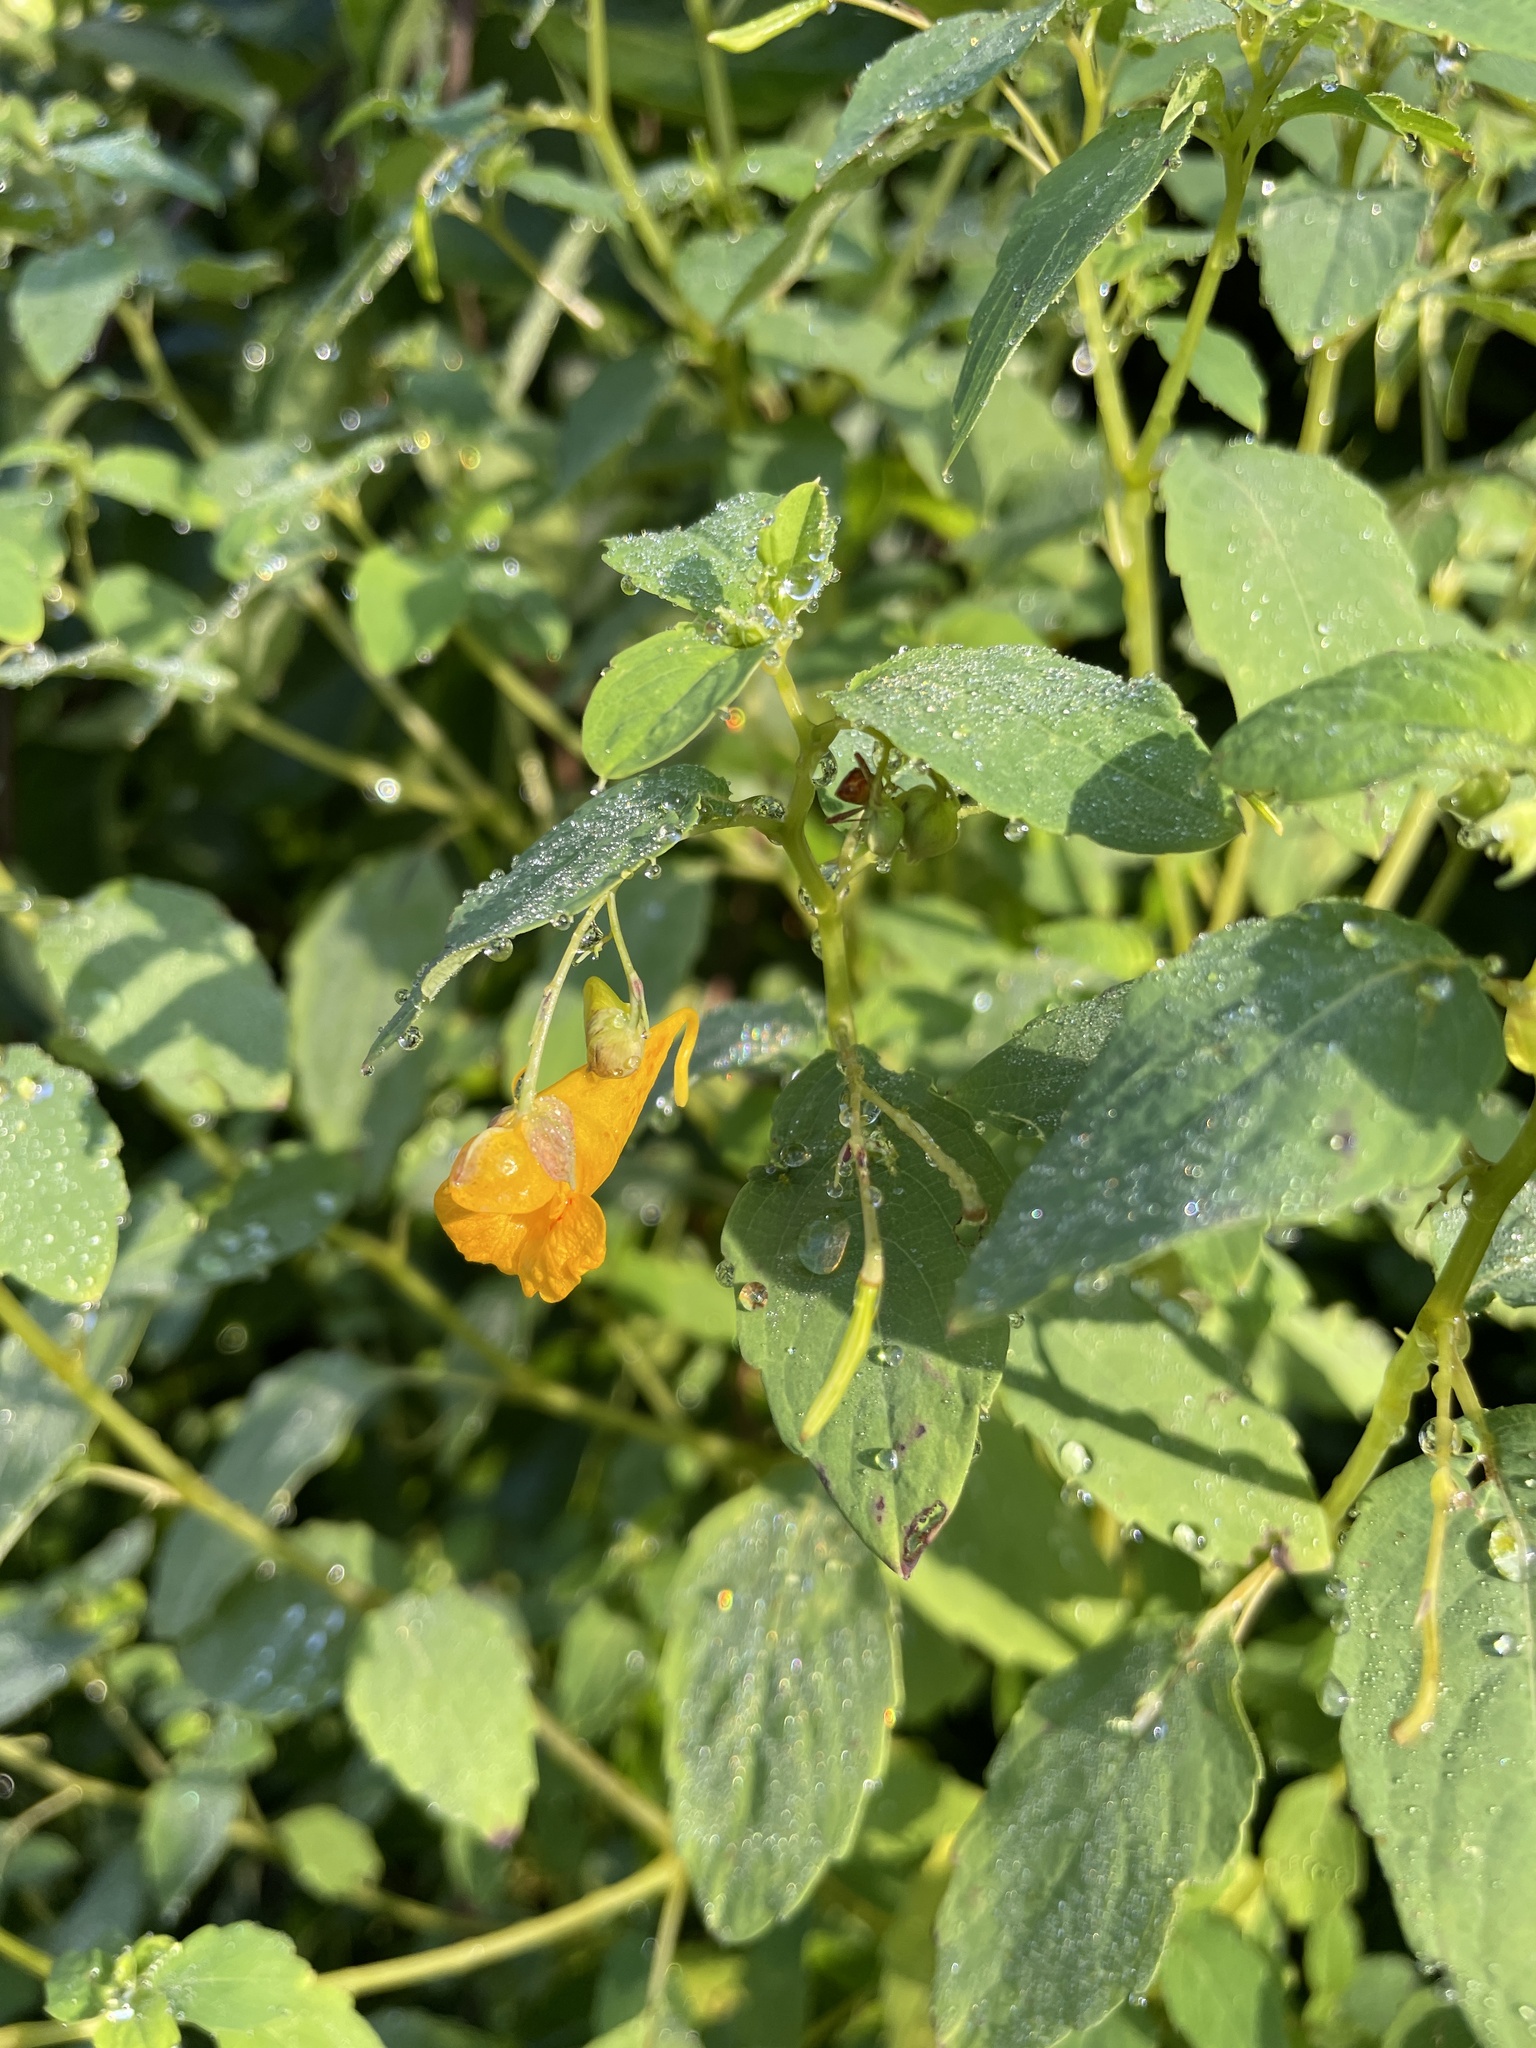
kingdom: Plantae
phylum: Tracheophyta
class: Magnoliopsida
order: Ericales
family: Balsaminaceae
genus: Impatiens
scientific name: Impatiens capensis
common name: Orange balsam
